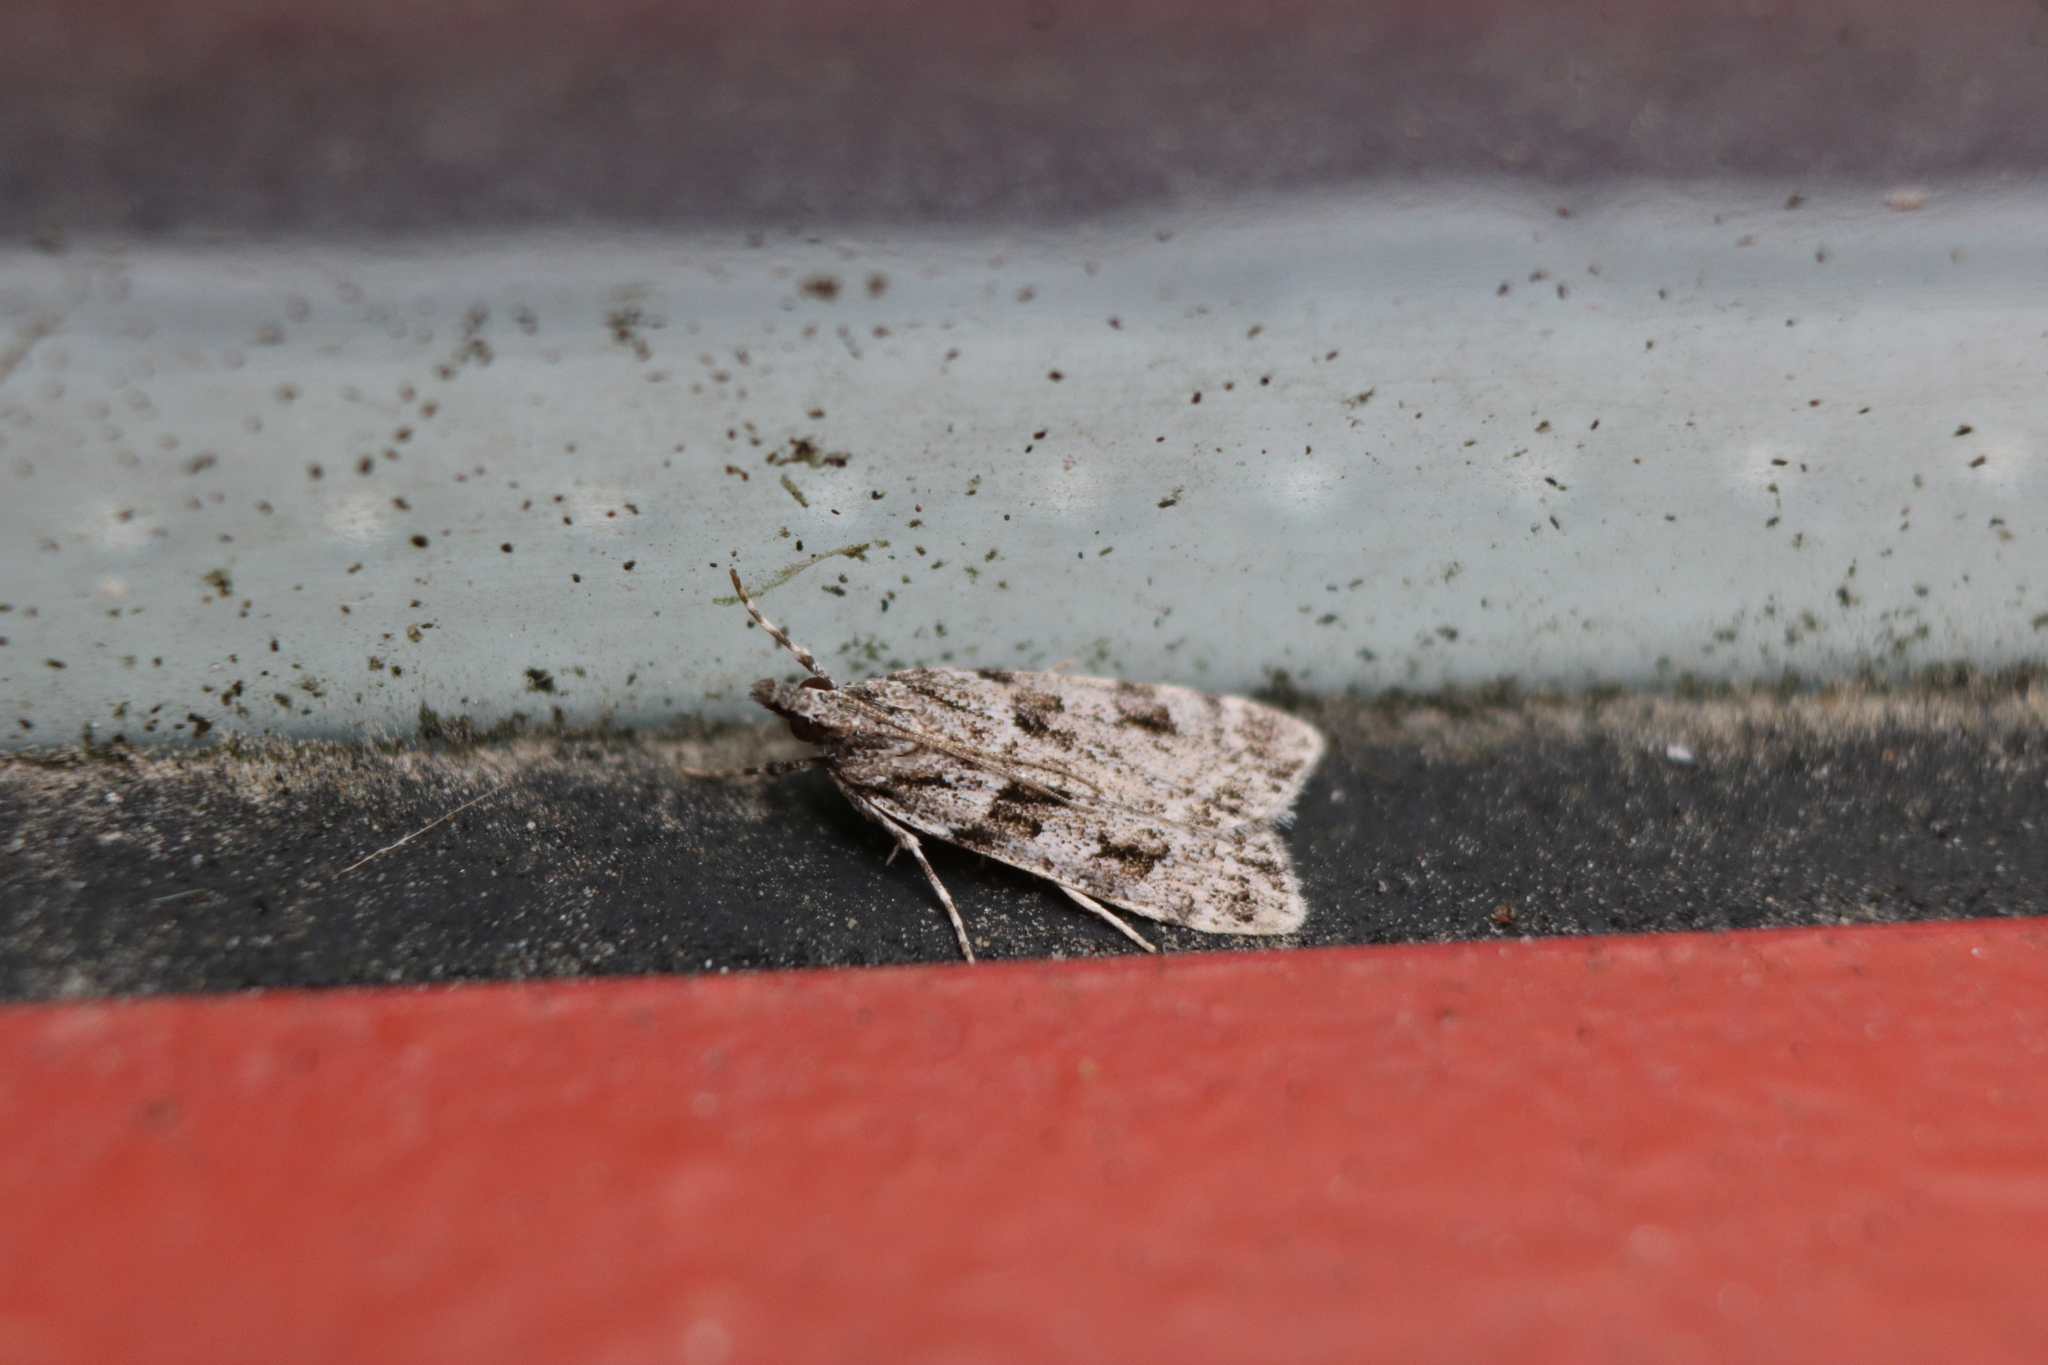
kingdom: Animalia
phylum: Arthropoda
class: Insecta
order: Lepidoptera
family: Crambidae
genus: Scoparia
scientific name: Scoparia biplagialis
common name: Double-striped scoparia moth
